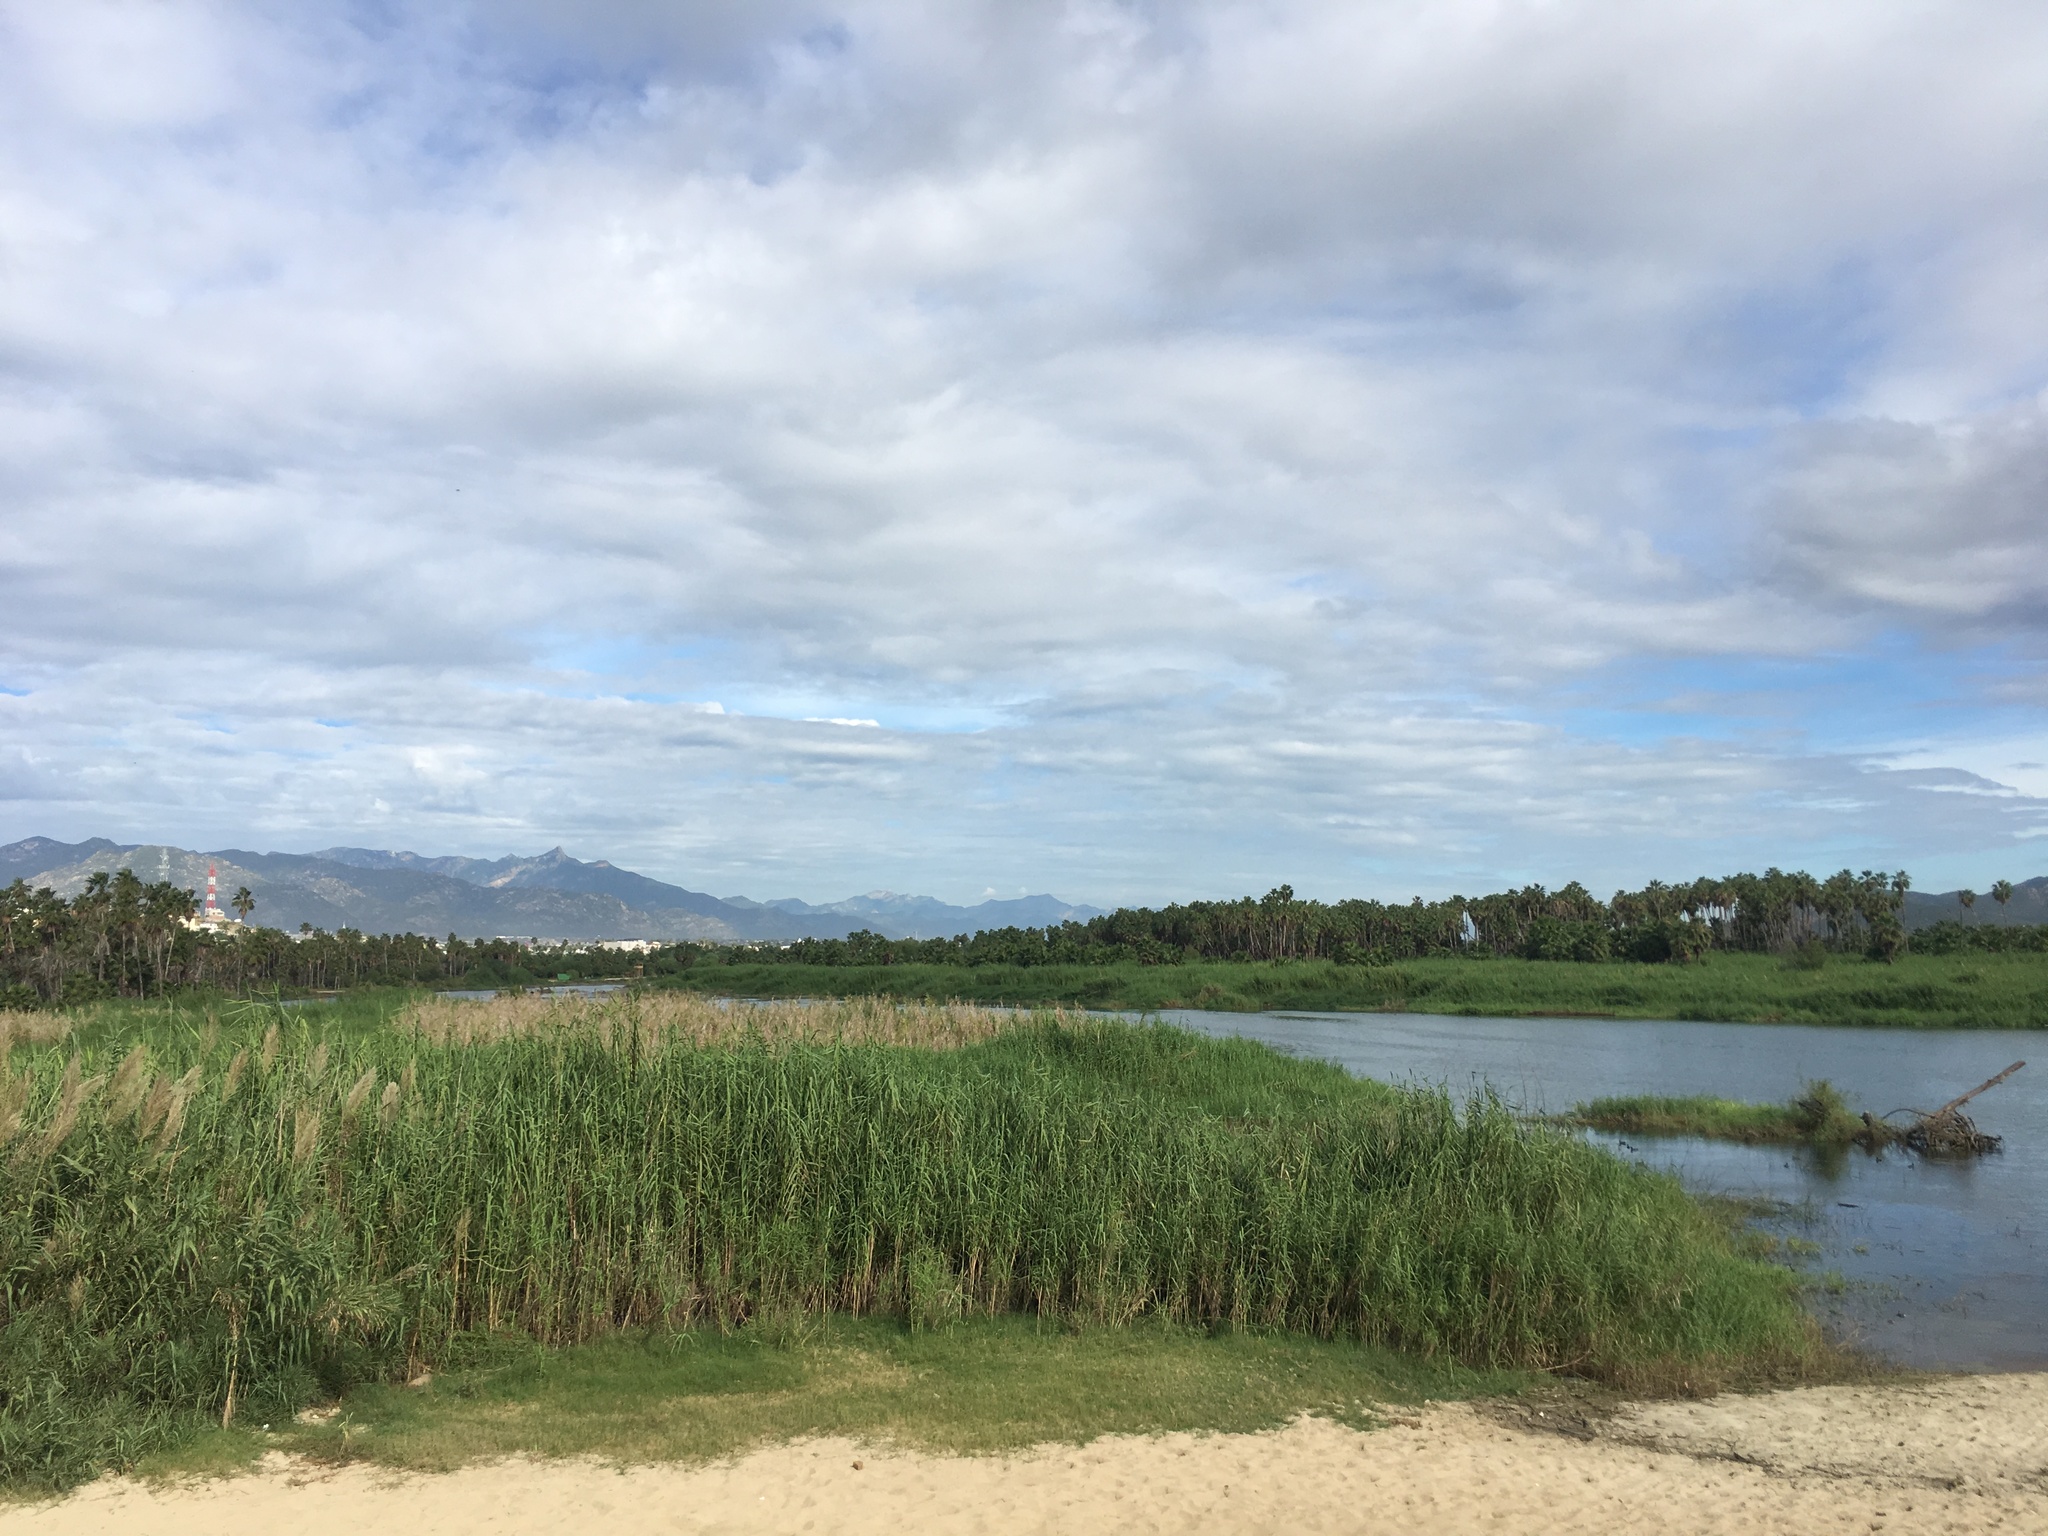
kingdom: Plantae
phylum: Tracheophyta
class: Liliopsida
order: Poales
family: Poaceae
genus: Phragmites
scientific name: Phragmites australis
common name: Common reed
